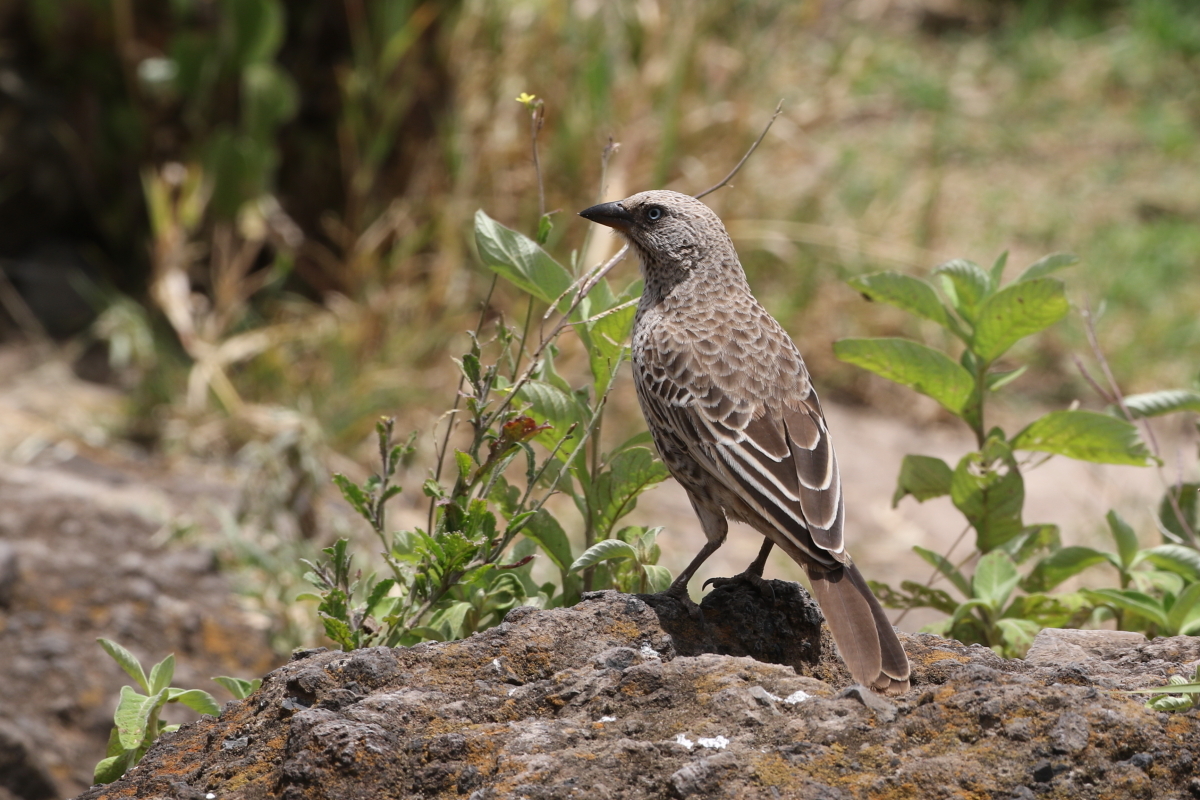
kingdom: Animalia
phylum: Chordata
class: Aves
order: Passeriformes
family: Passeridae
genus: Histurgops
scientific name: Histurgops ruficauda
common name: Rufous-tailed weaver
